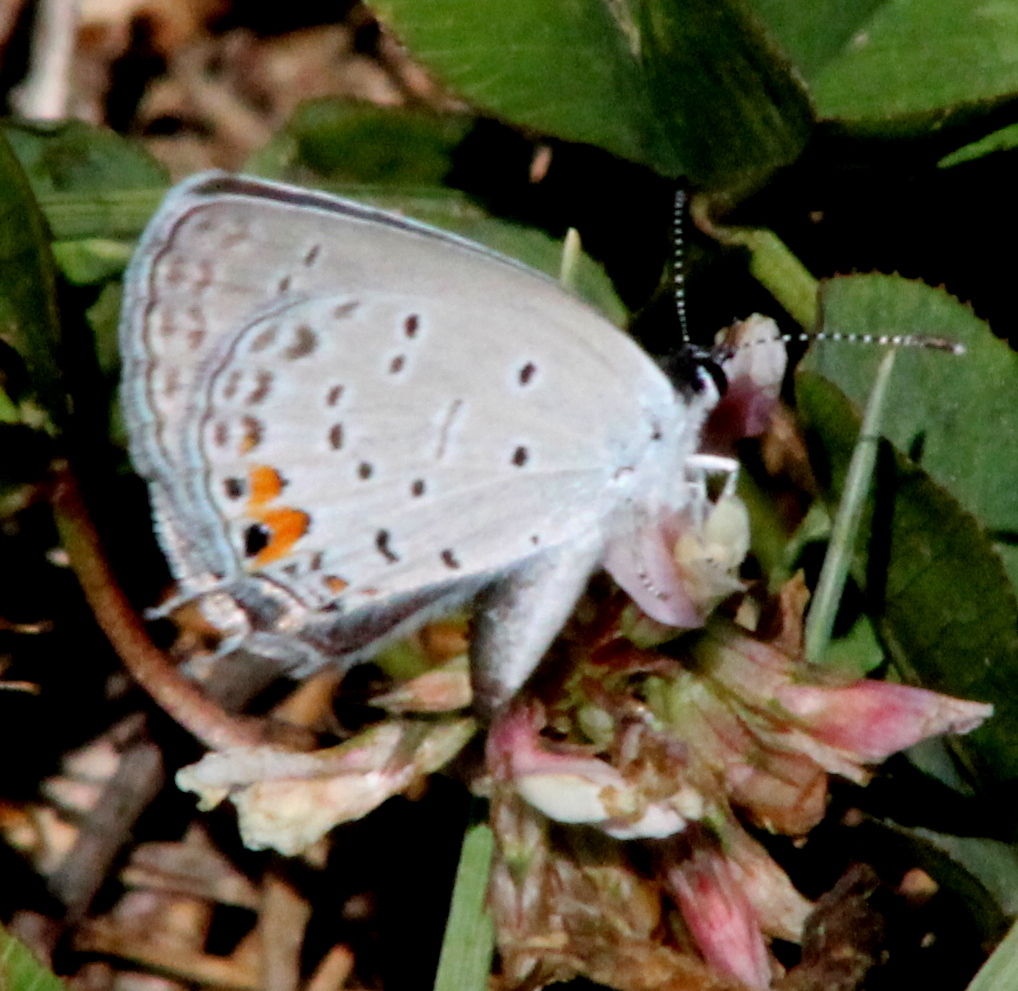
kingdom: Animalia
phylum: Arthropoda
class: Insecta
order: Lepidoptera
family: Lycaenidae
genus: Elkalyce
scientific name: Elkalyce comyntas
